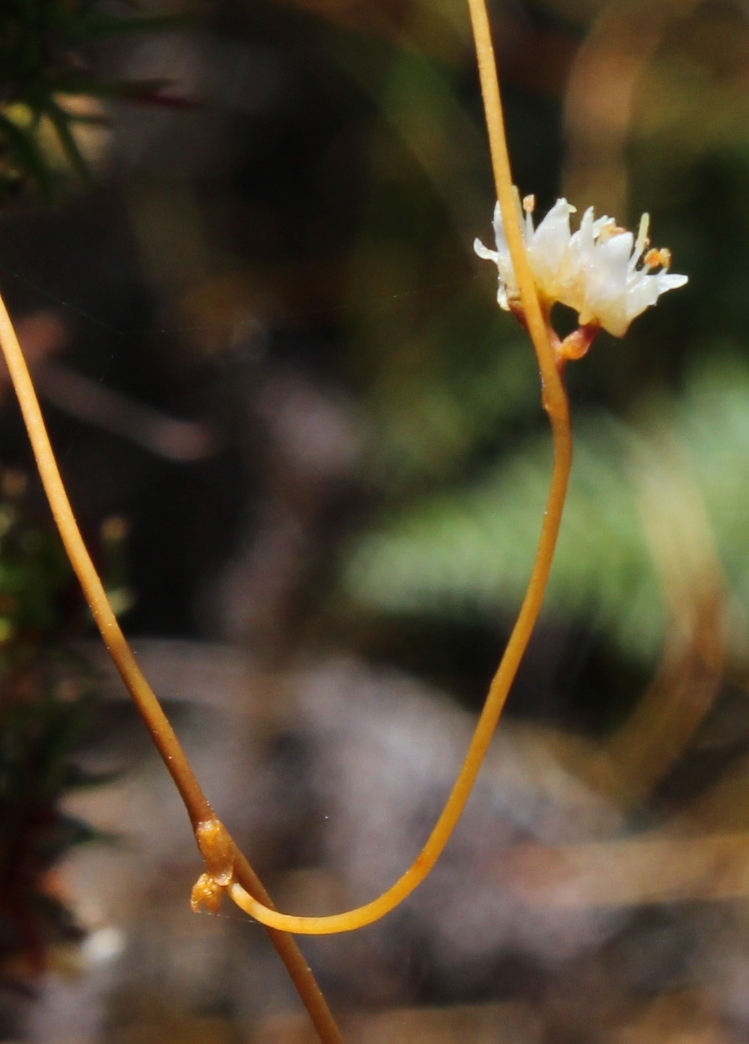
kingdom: Plantae
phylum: Tracheophyta
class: Magnoliopsida
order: Solanales
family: Convolvulaceae
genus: Cuscuta
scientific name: Cuscuta angulata
